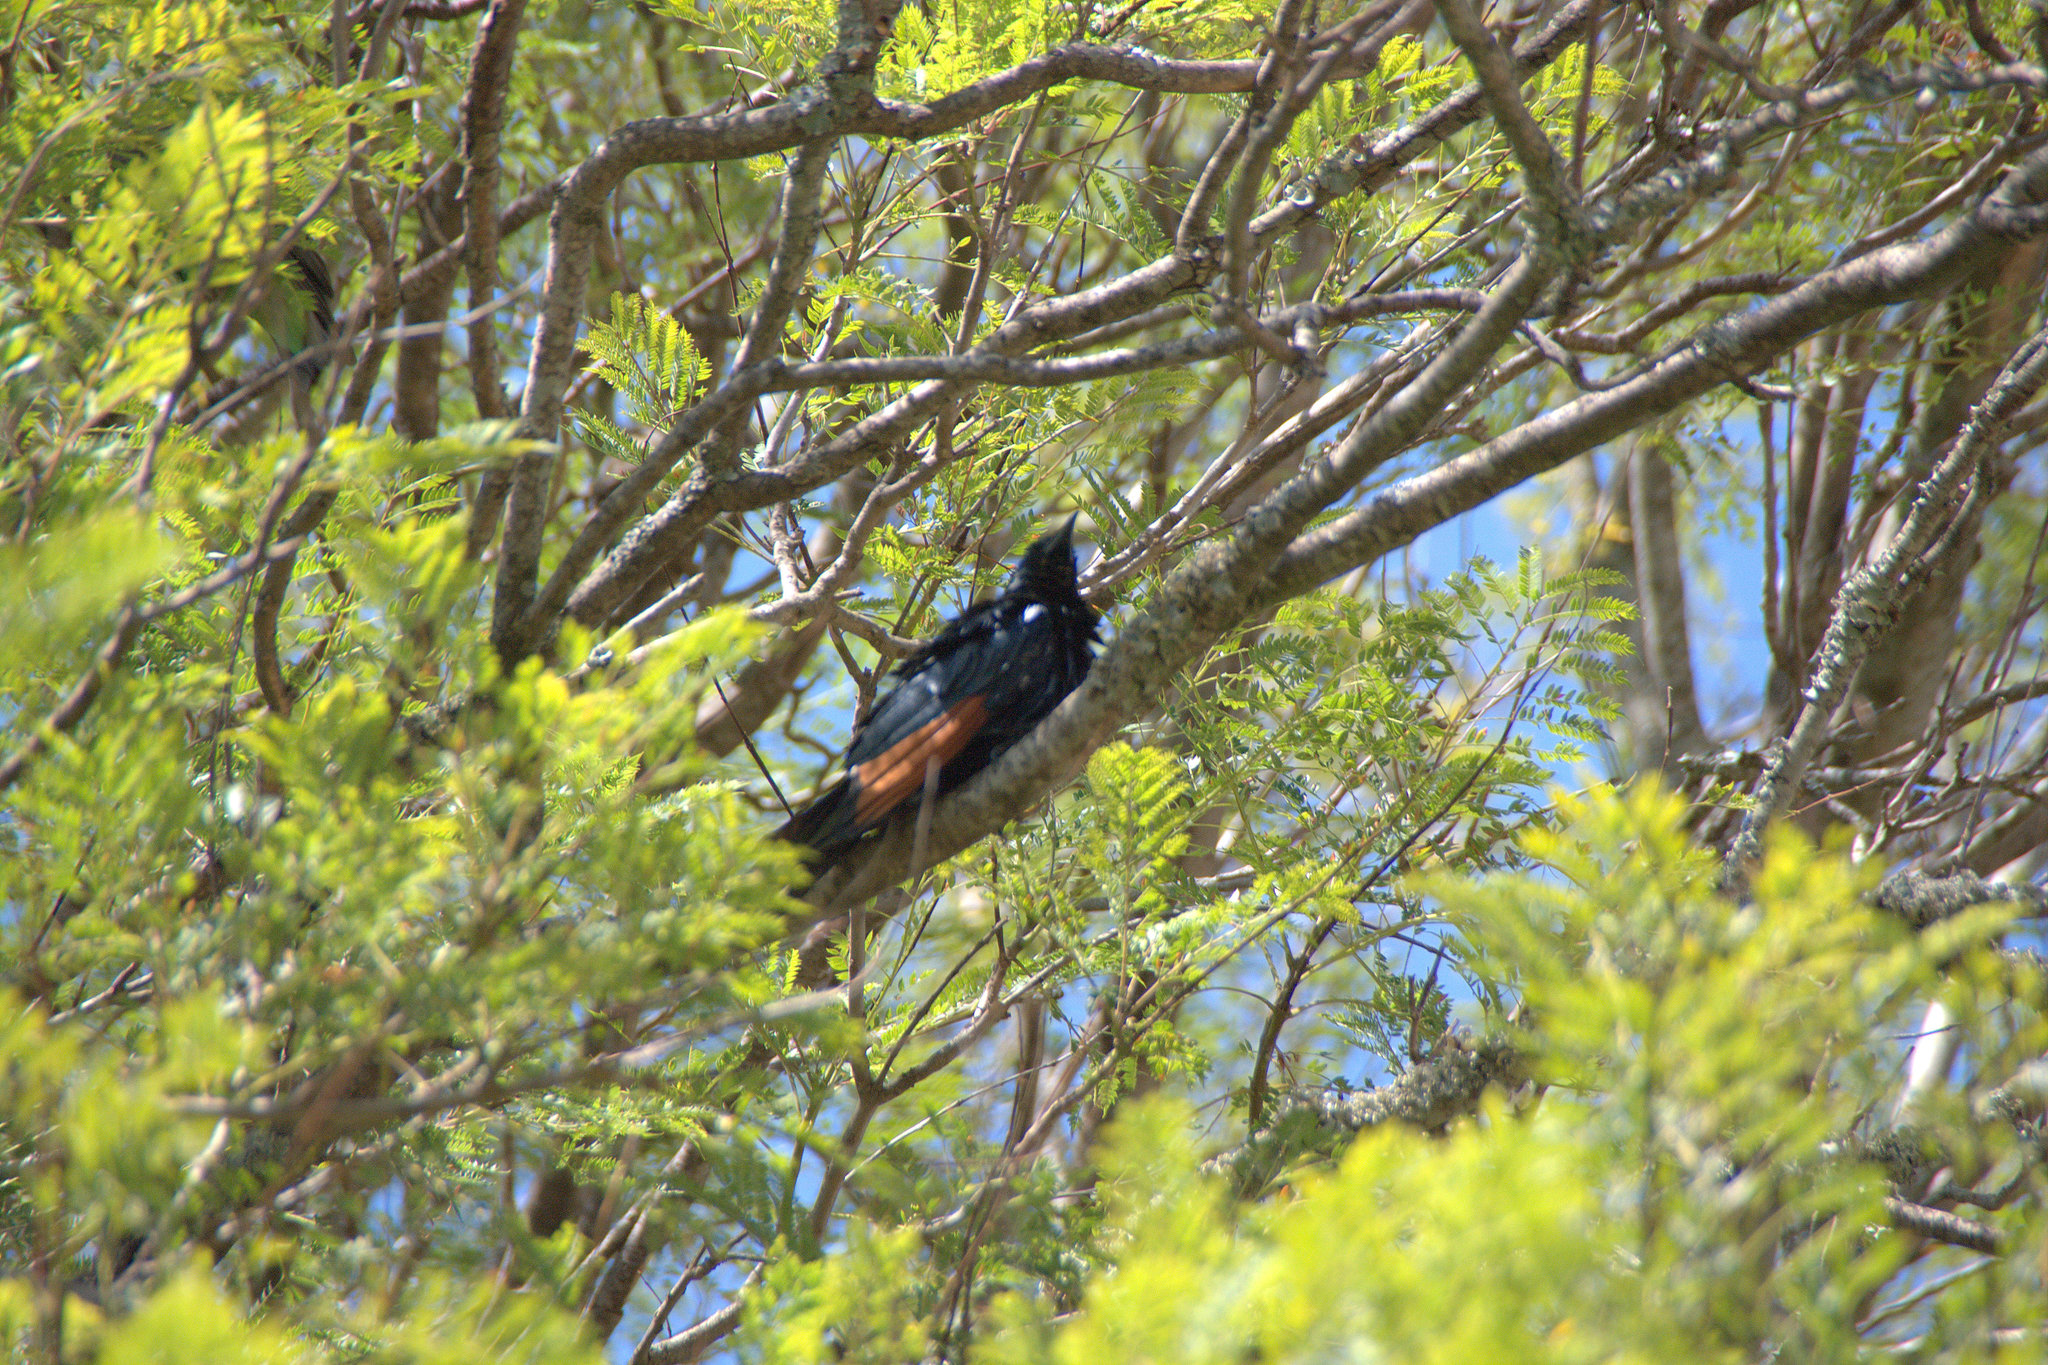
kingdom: Animalia
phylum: Chordata
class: Aves
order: Passeriformes
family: Sturnidae
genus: Onychognathus
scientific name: Onychognathus morio
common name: Red-winged starling
